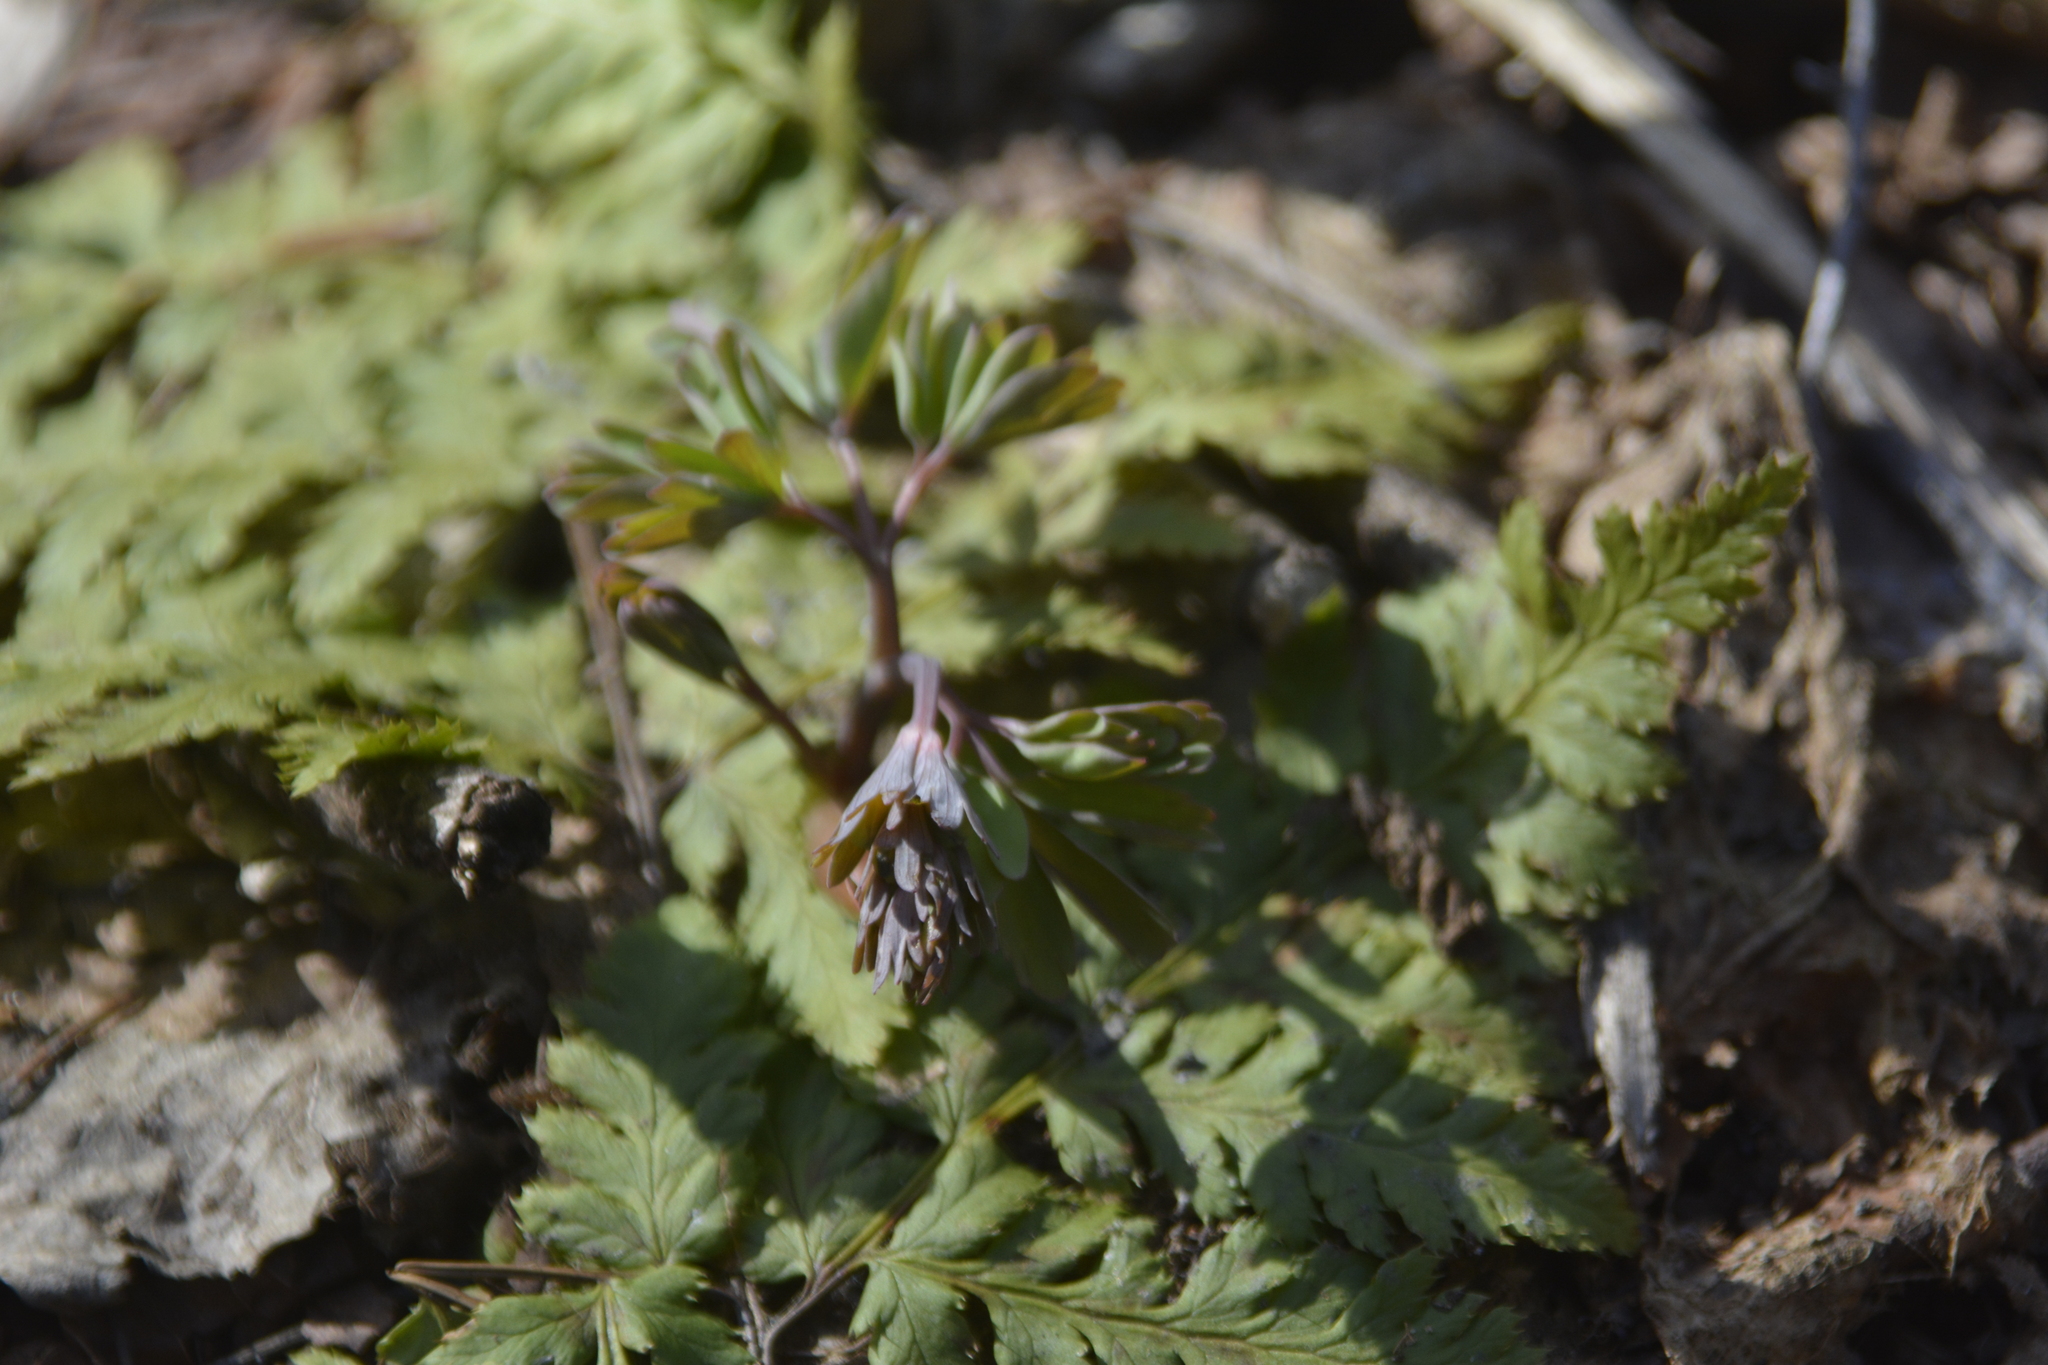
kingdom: Plantae
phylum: Tracheophyta
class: Magnoliopsida
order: Ranunculales
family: Papaveraceae
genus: Corydalis
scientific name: Corydalis solida
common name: Bird-in-a-bush
